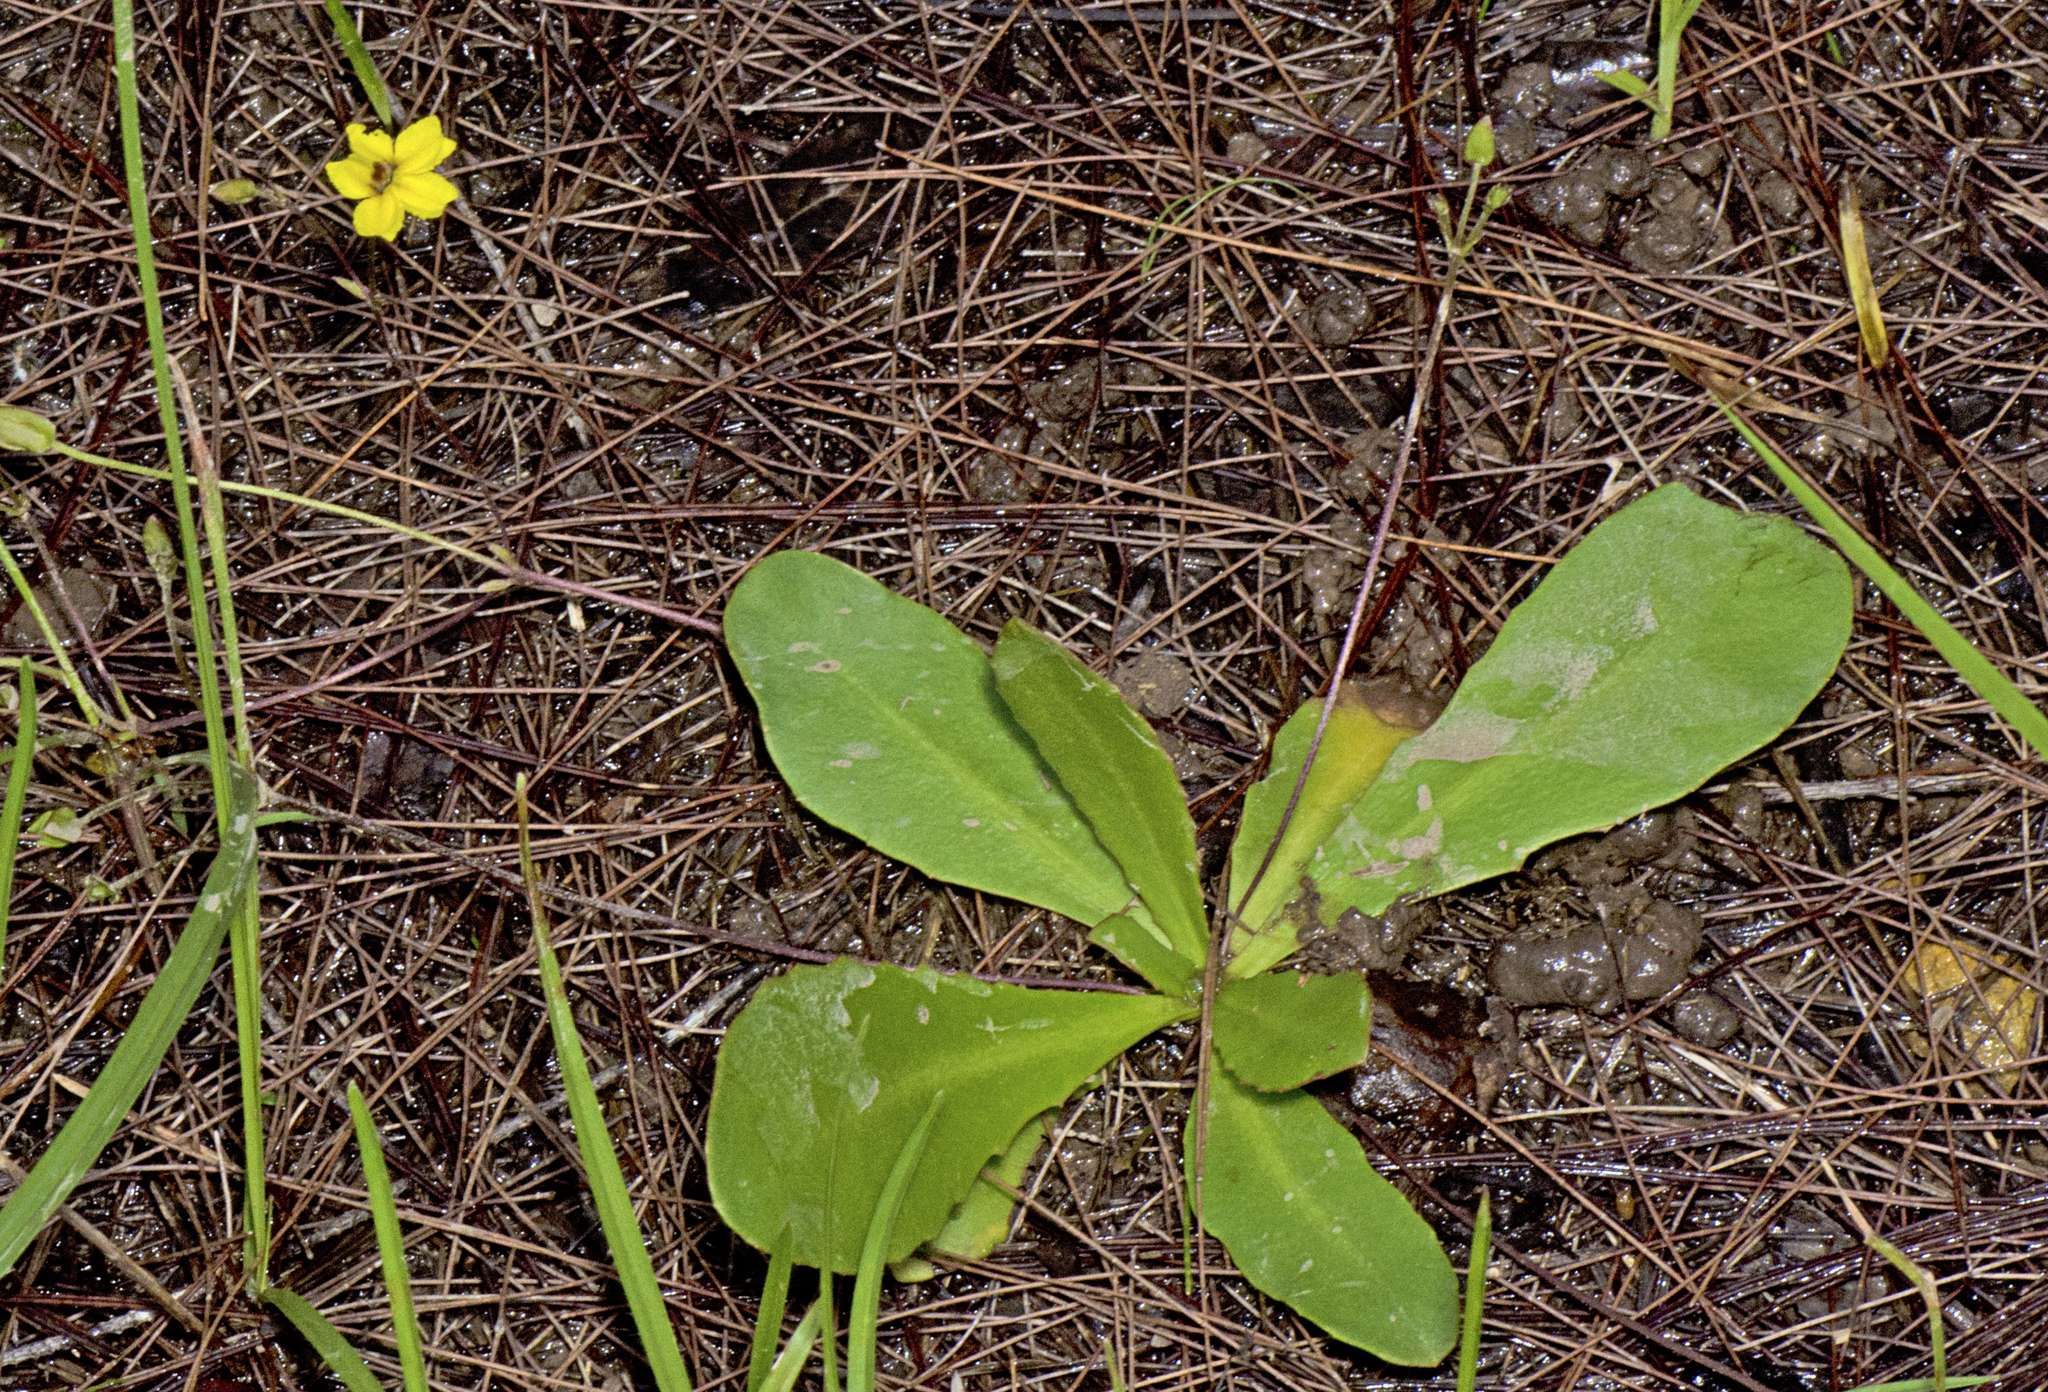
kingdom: Plantae
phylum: Tracheophyta
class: Magnoliopsida
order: Asterales
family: Goodeniaceae
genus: Goodenia
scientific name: Goodenia mystrophylla
